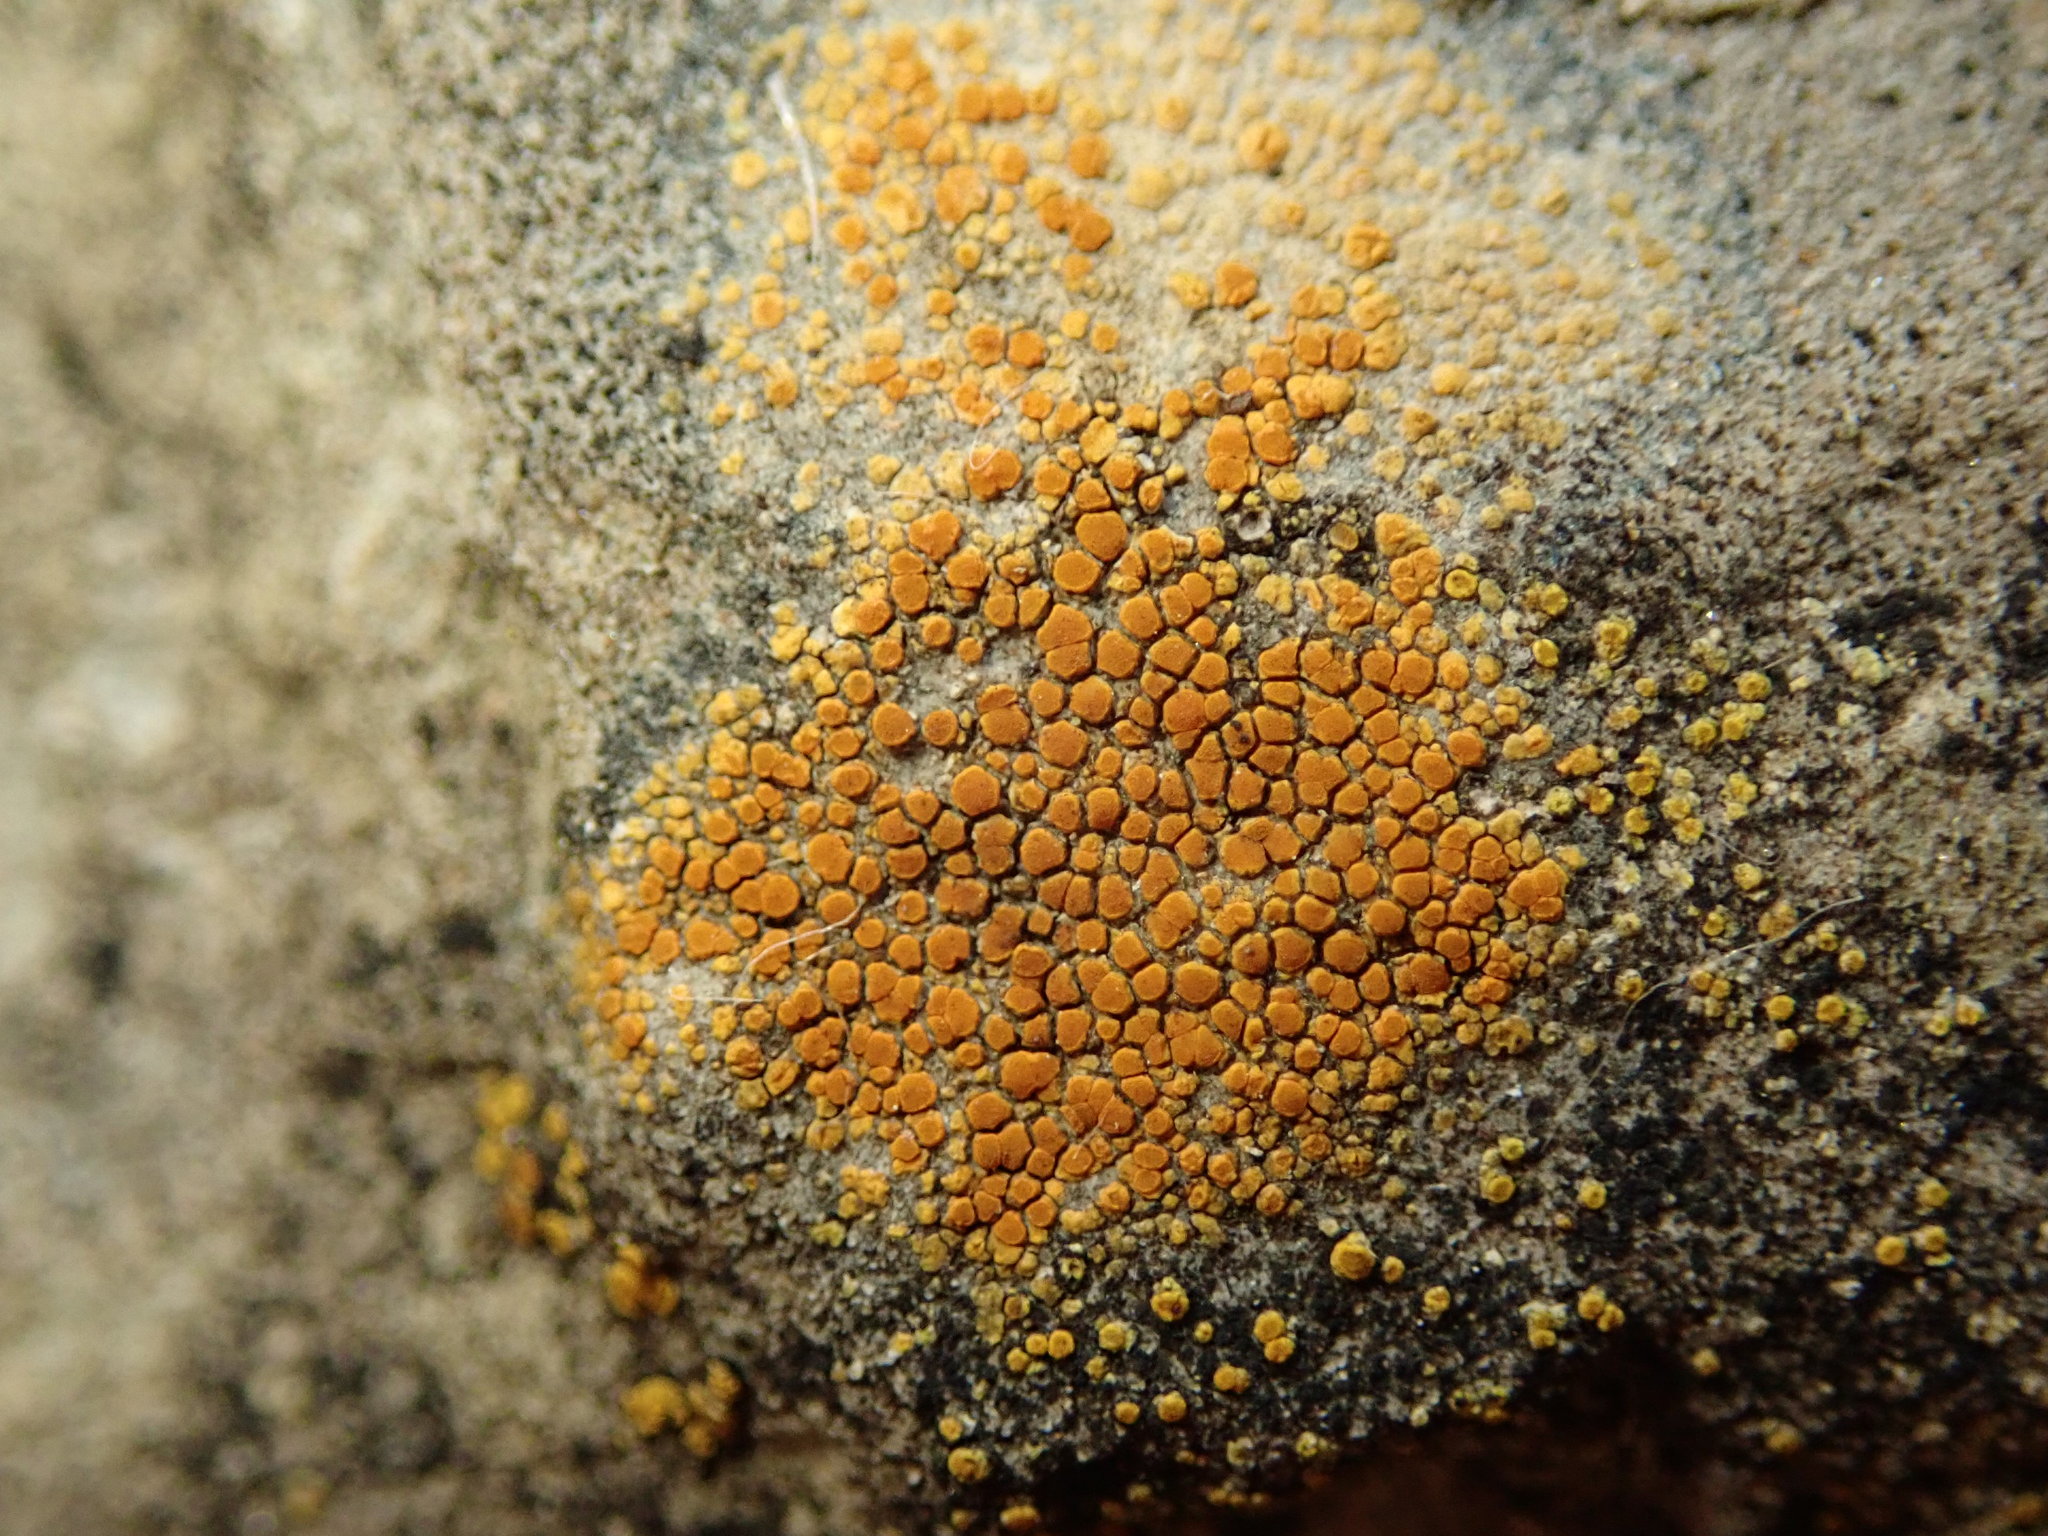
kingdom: Fungi
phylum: Ascomycota
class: Lecanoromycetes
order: Teloschistales
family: Teloschistaceae
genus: Xanthocarpia
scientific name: Xanthocarpia feracissima
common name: Sidewalk firedot
